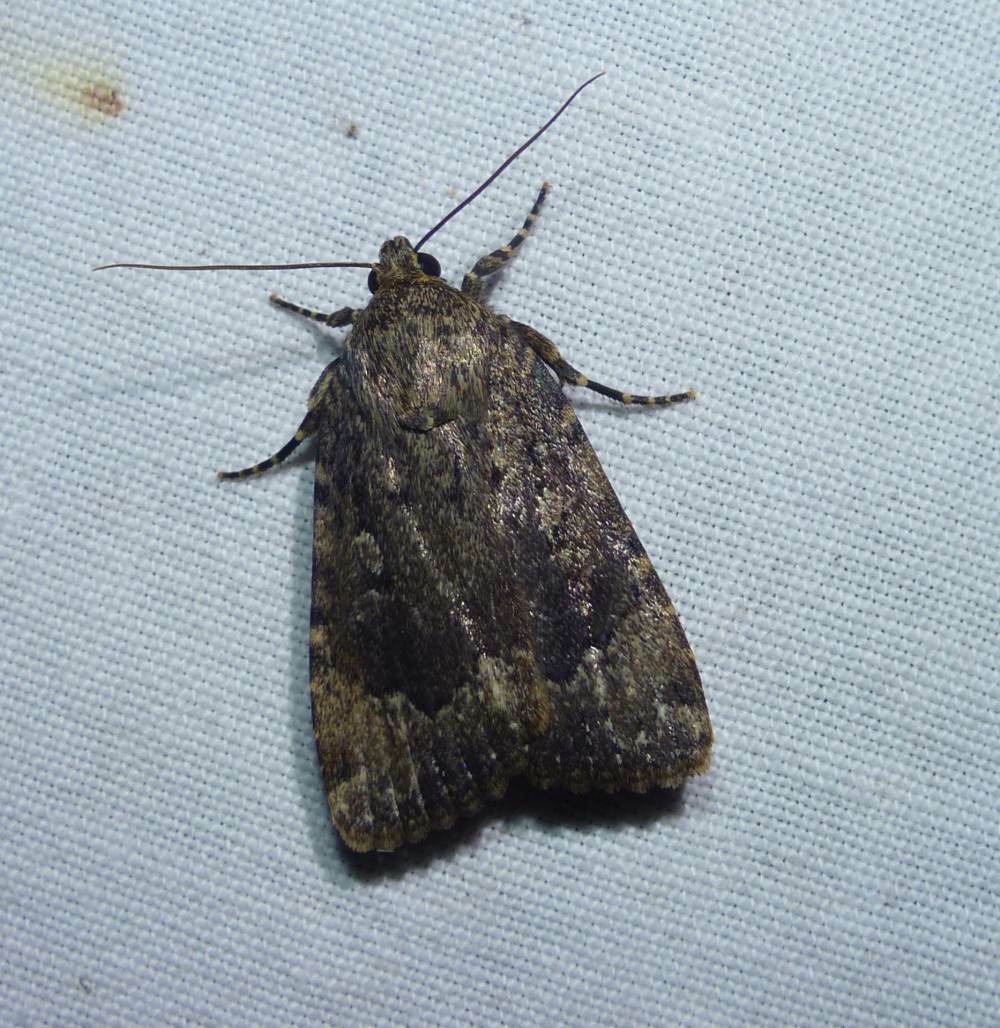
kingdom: Animalia
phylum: Arthropoda
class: Insecta
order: Lepidoptera
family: Noctuidae
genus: Amphipyra
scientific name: Amphipyra pyramidoides
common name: American copper underwing
